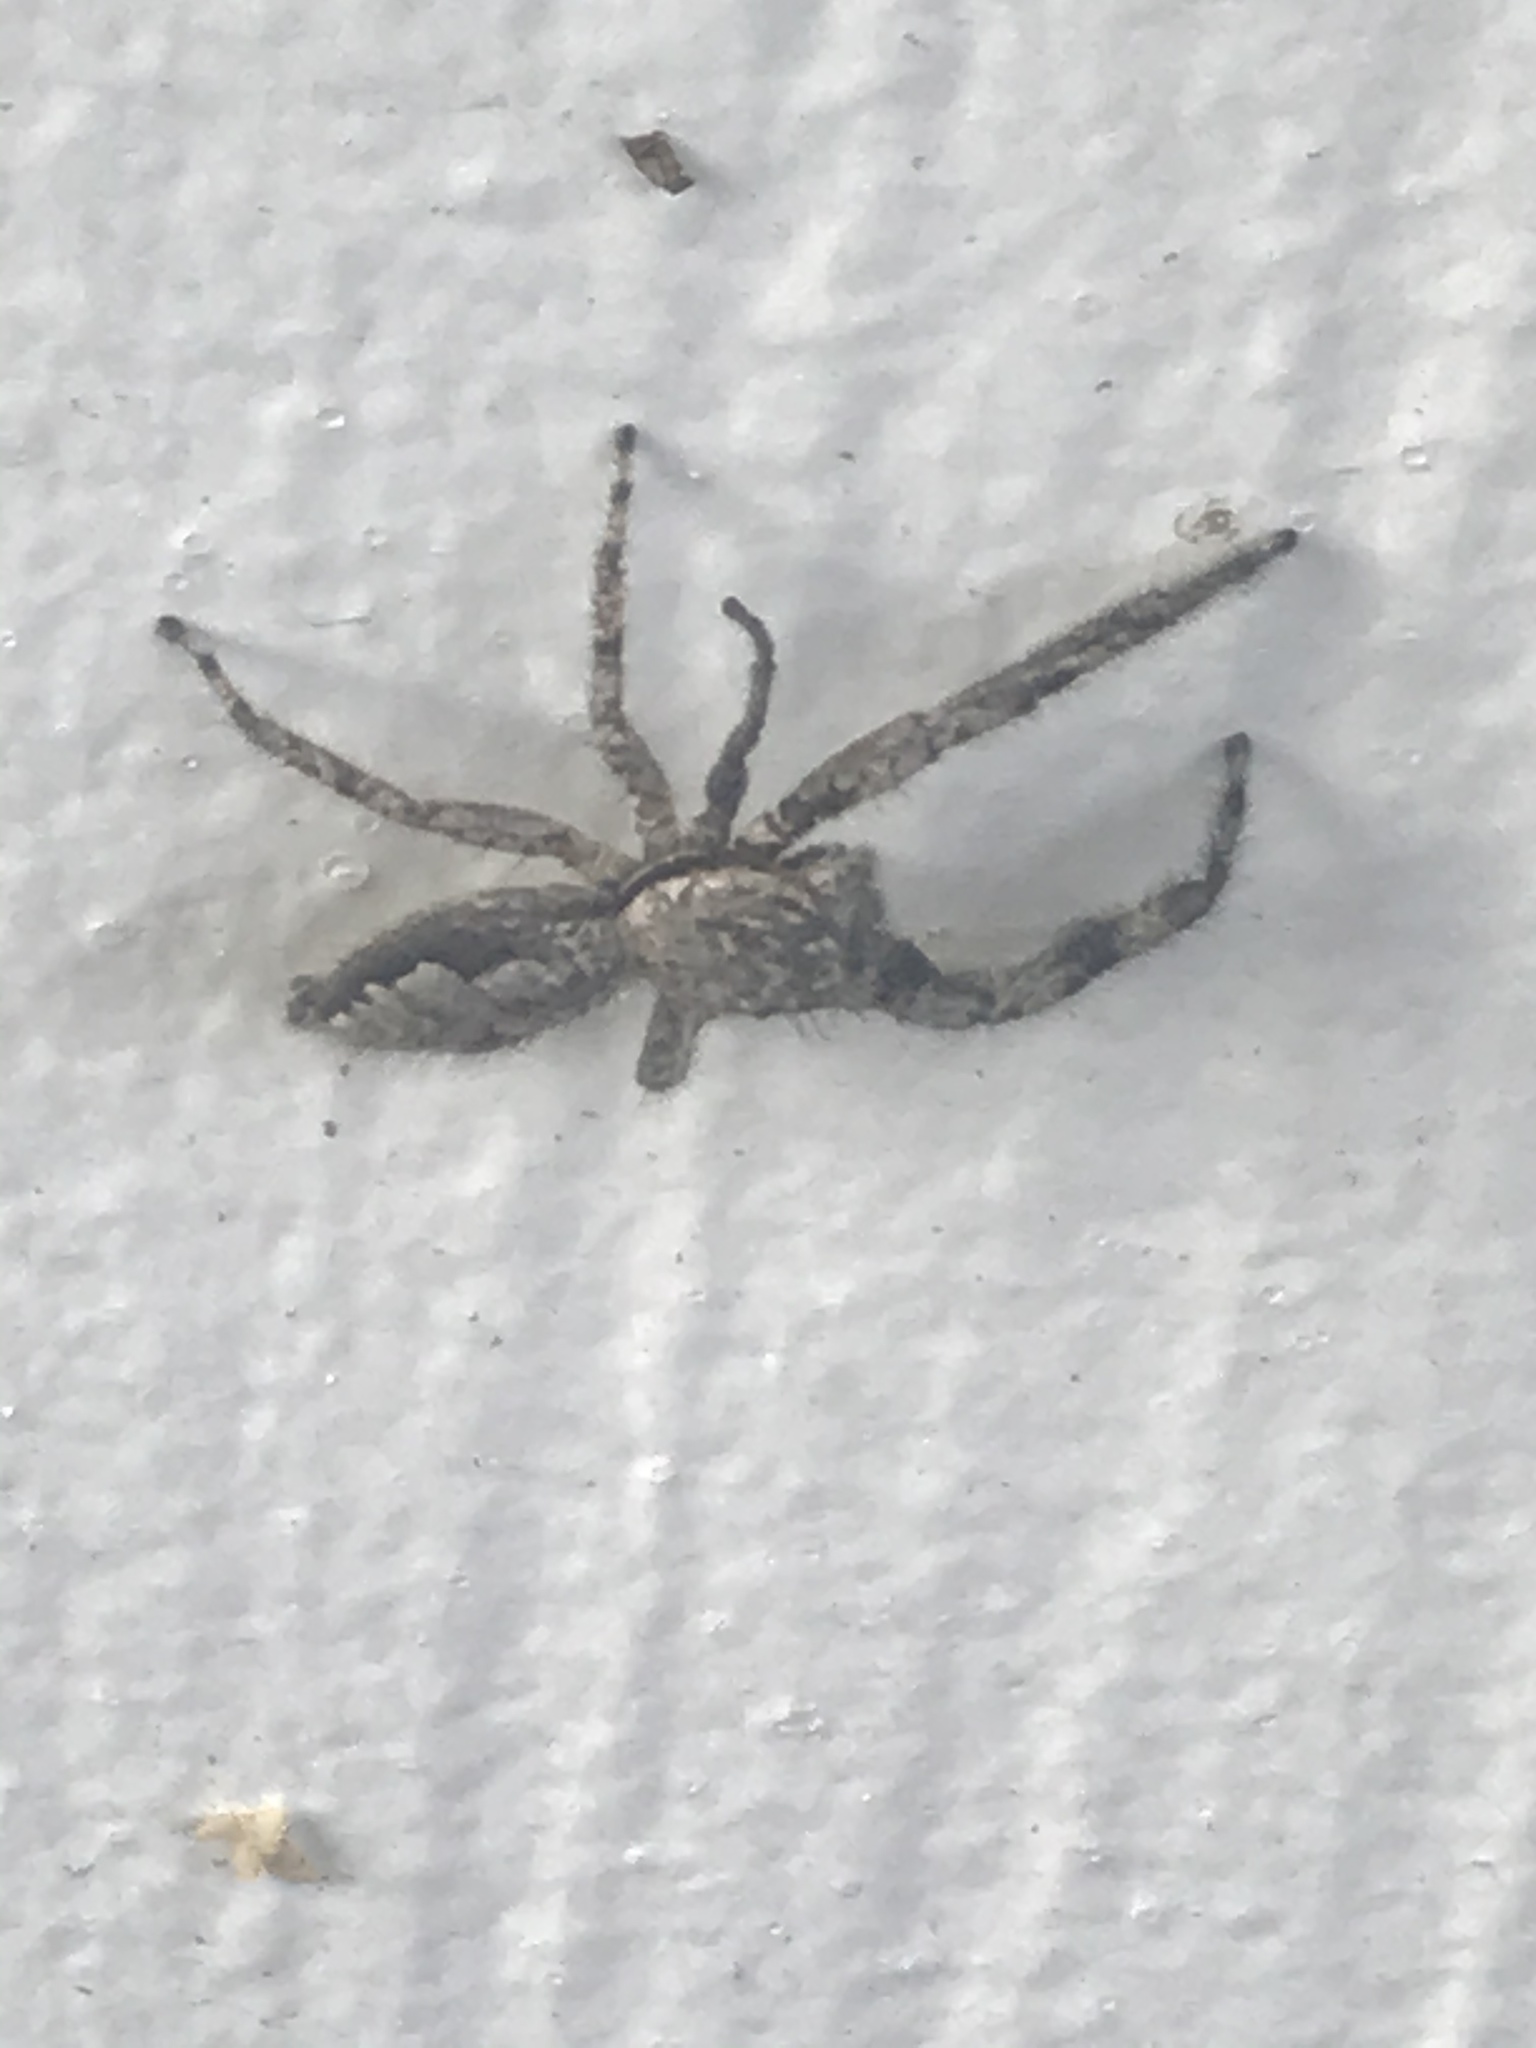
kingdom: Animalia
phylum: Arthropoda
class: Arachnida
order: Araneae
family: Salticidae
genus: Platycryptus
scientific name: Platycryptus undatus
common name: Tan jumping spider
